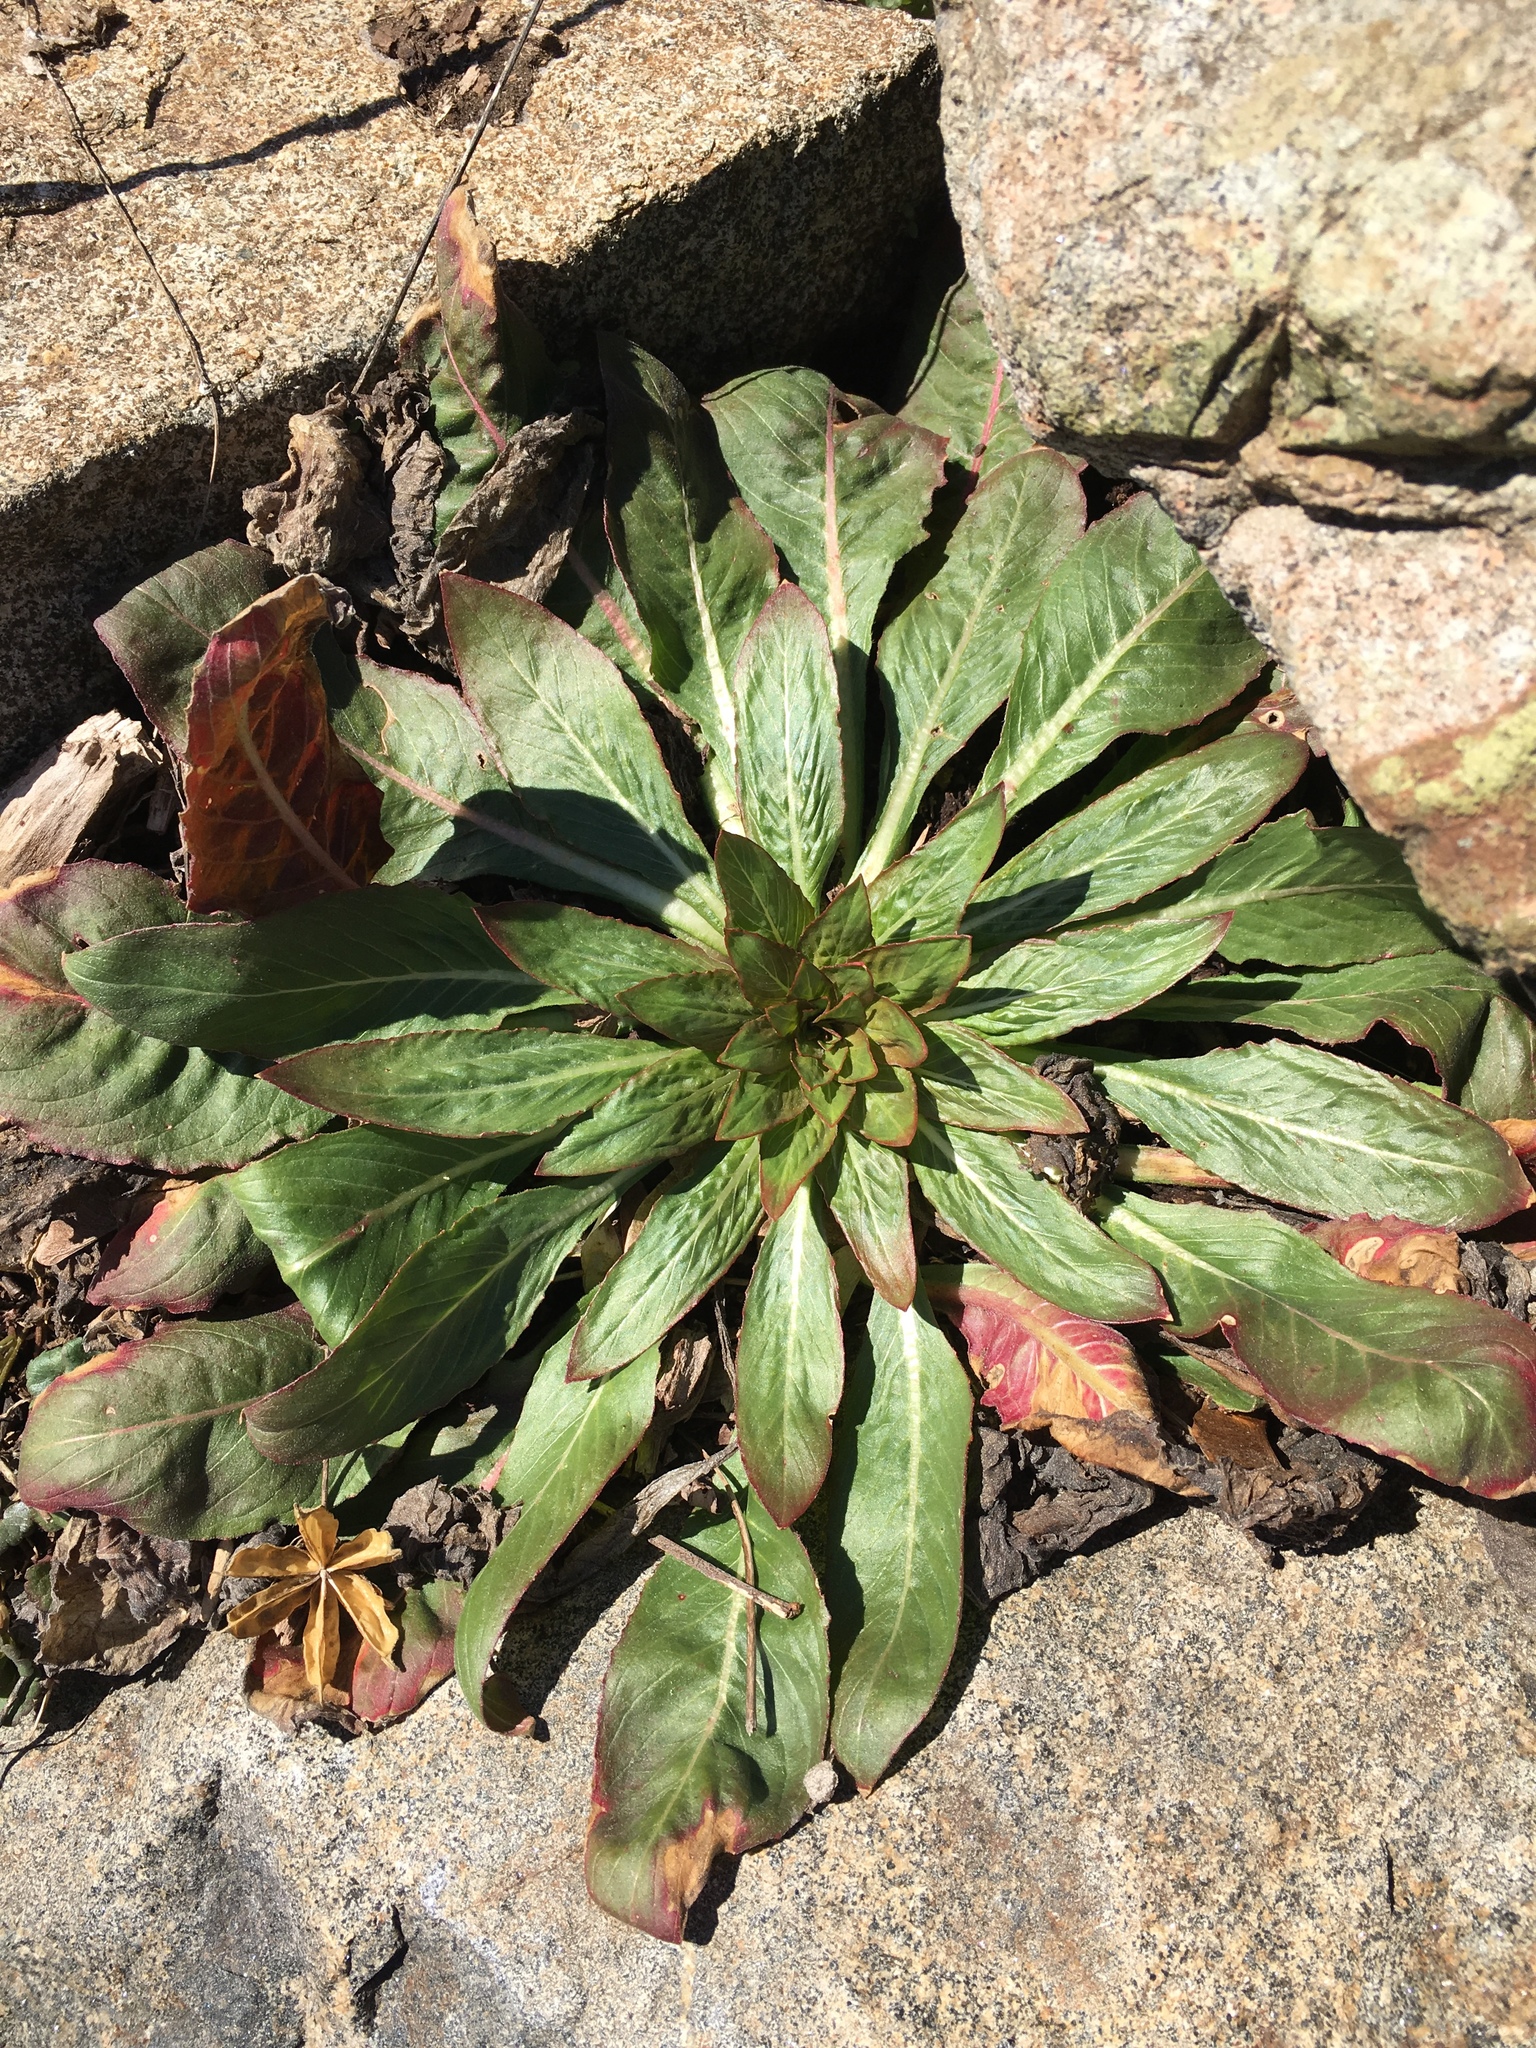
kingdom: Plantae
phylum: Tracheophyta
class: Magnoliopsida
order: Myrtales
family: Onagraceae
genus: Oenothera
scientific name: Oenothera biennis
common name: Common evening-primrose
